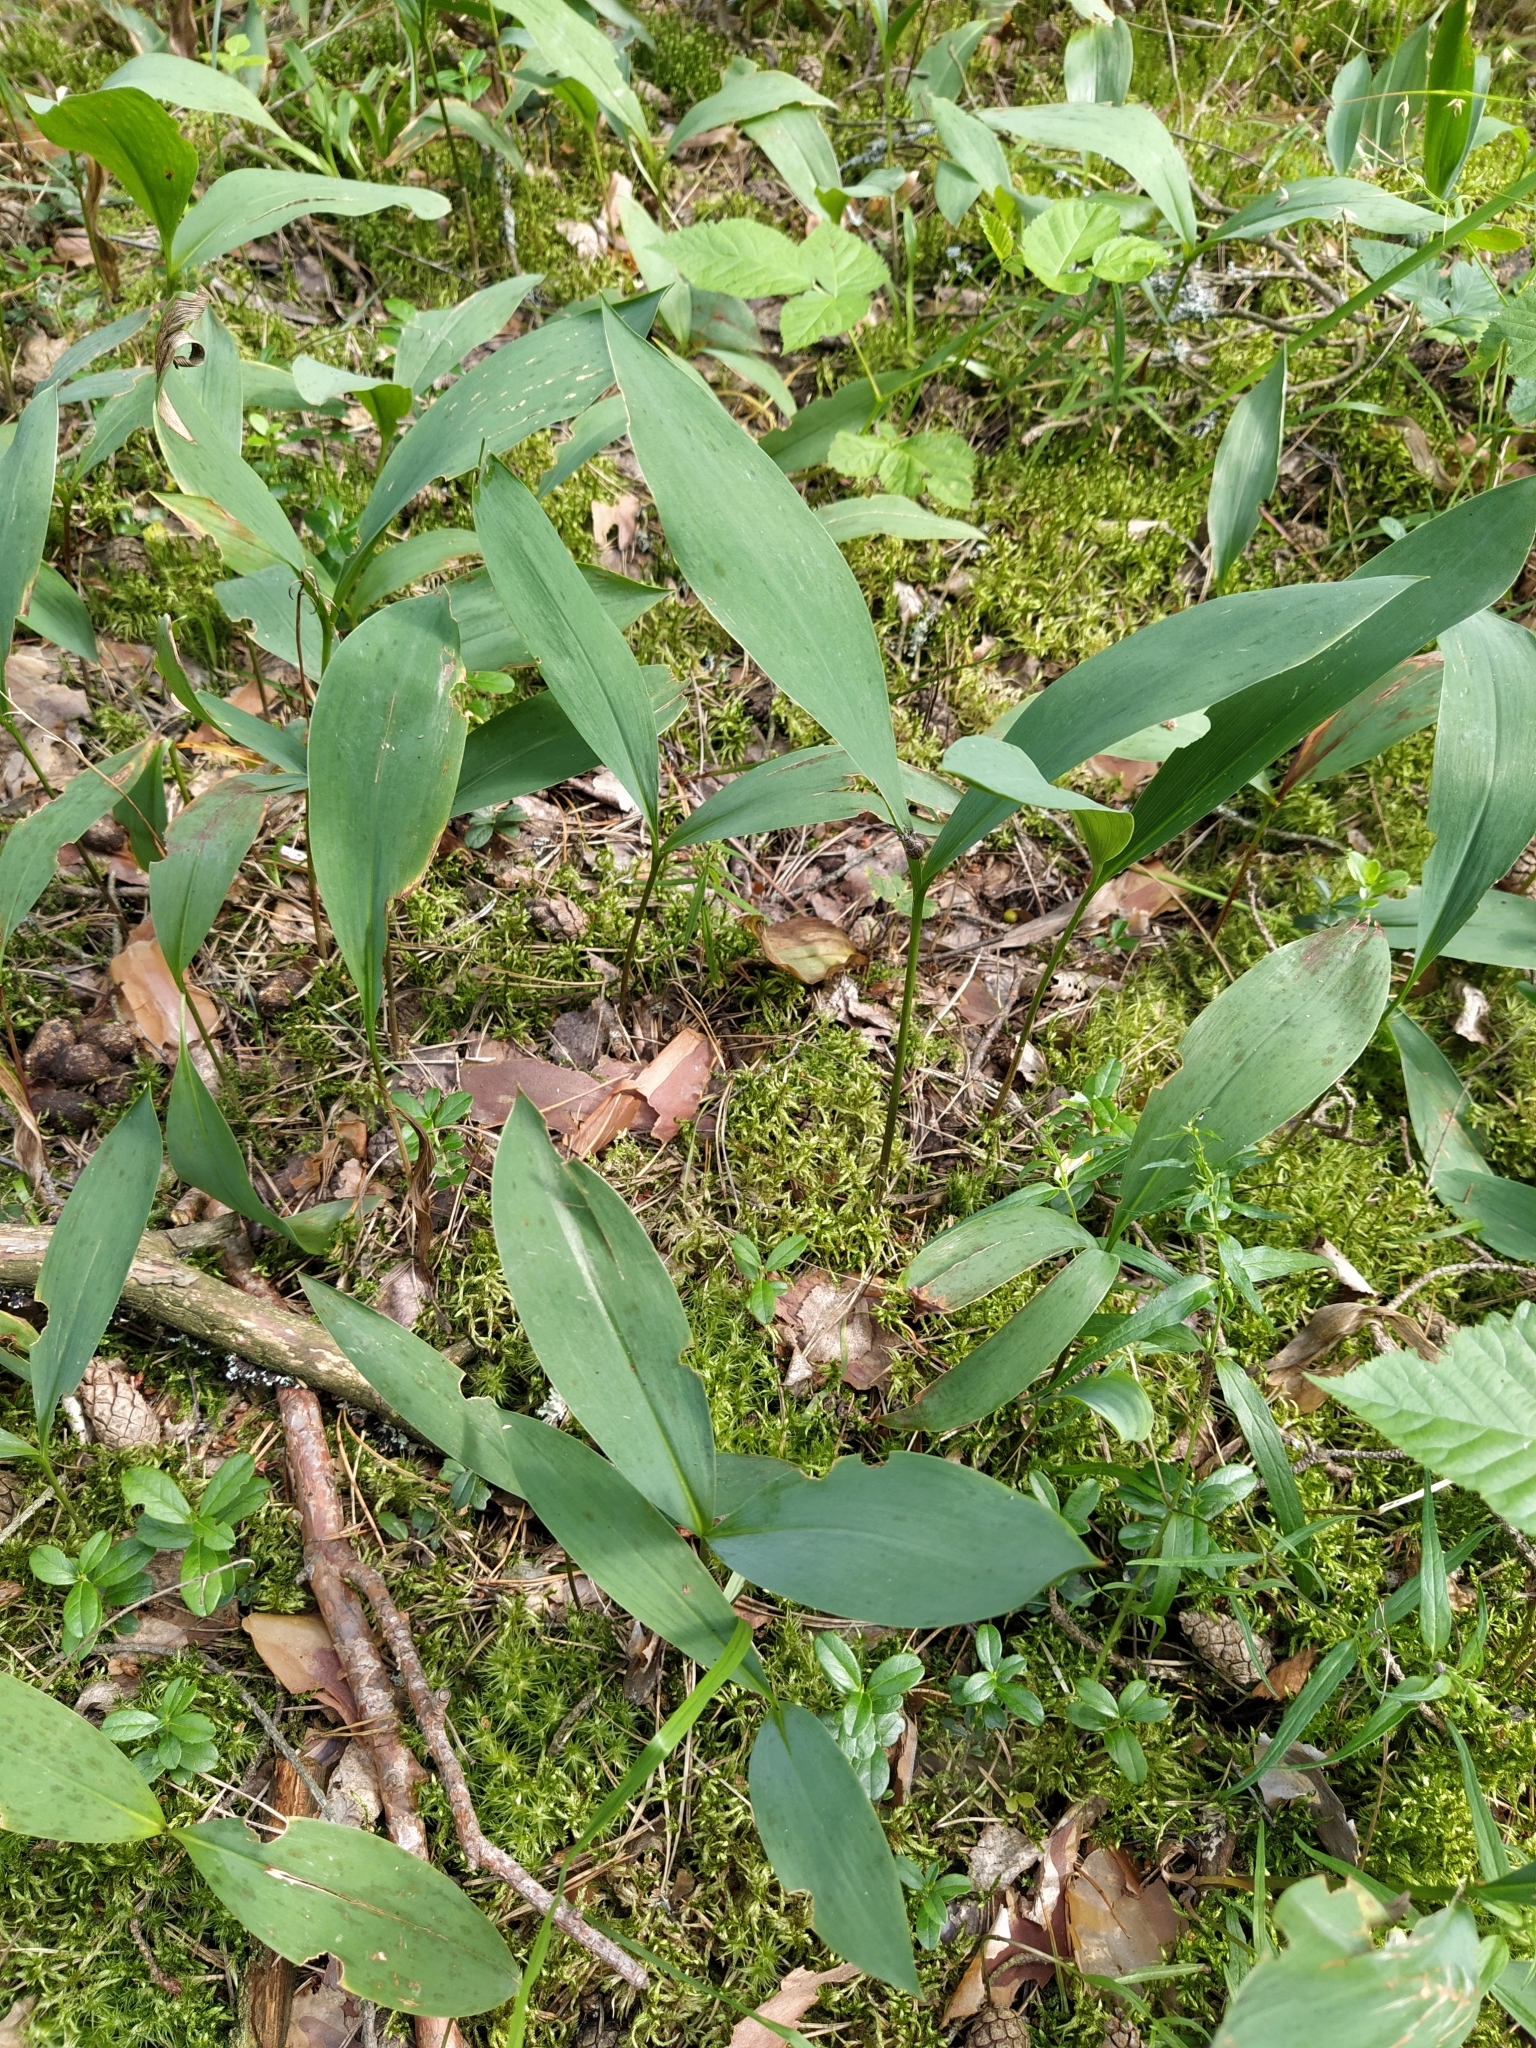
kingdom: Plantae
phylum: Tracheophyta
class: Liliopsida
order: Asparagales
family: Asparagaceae
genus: Convallaria
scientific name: Convallaria majalis
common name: Lily-of-the-valley
